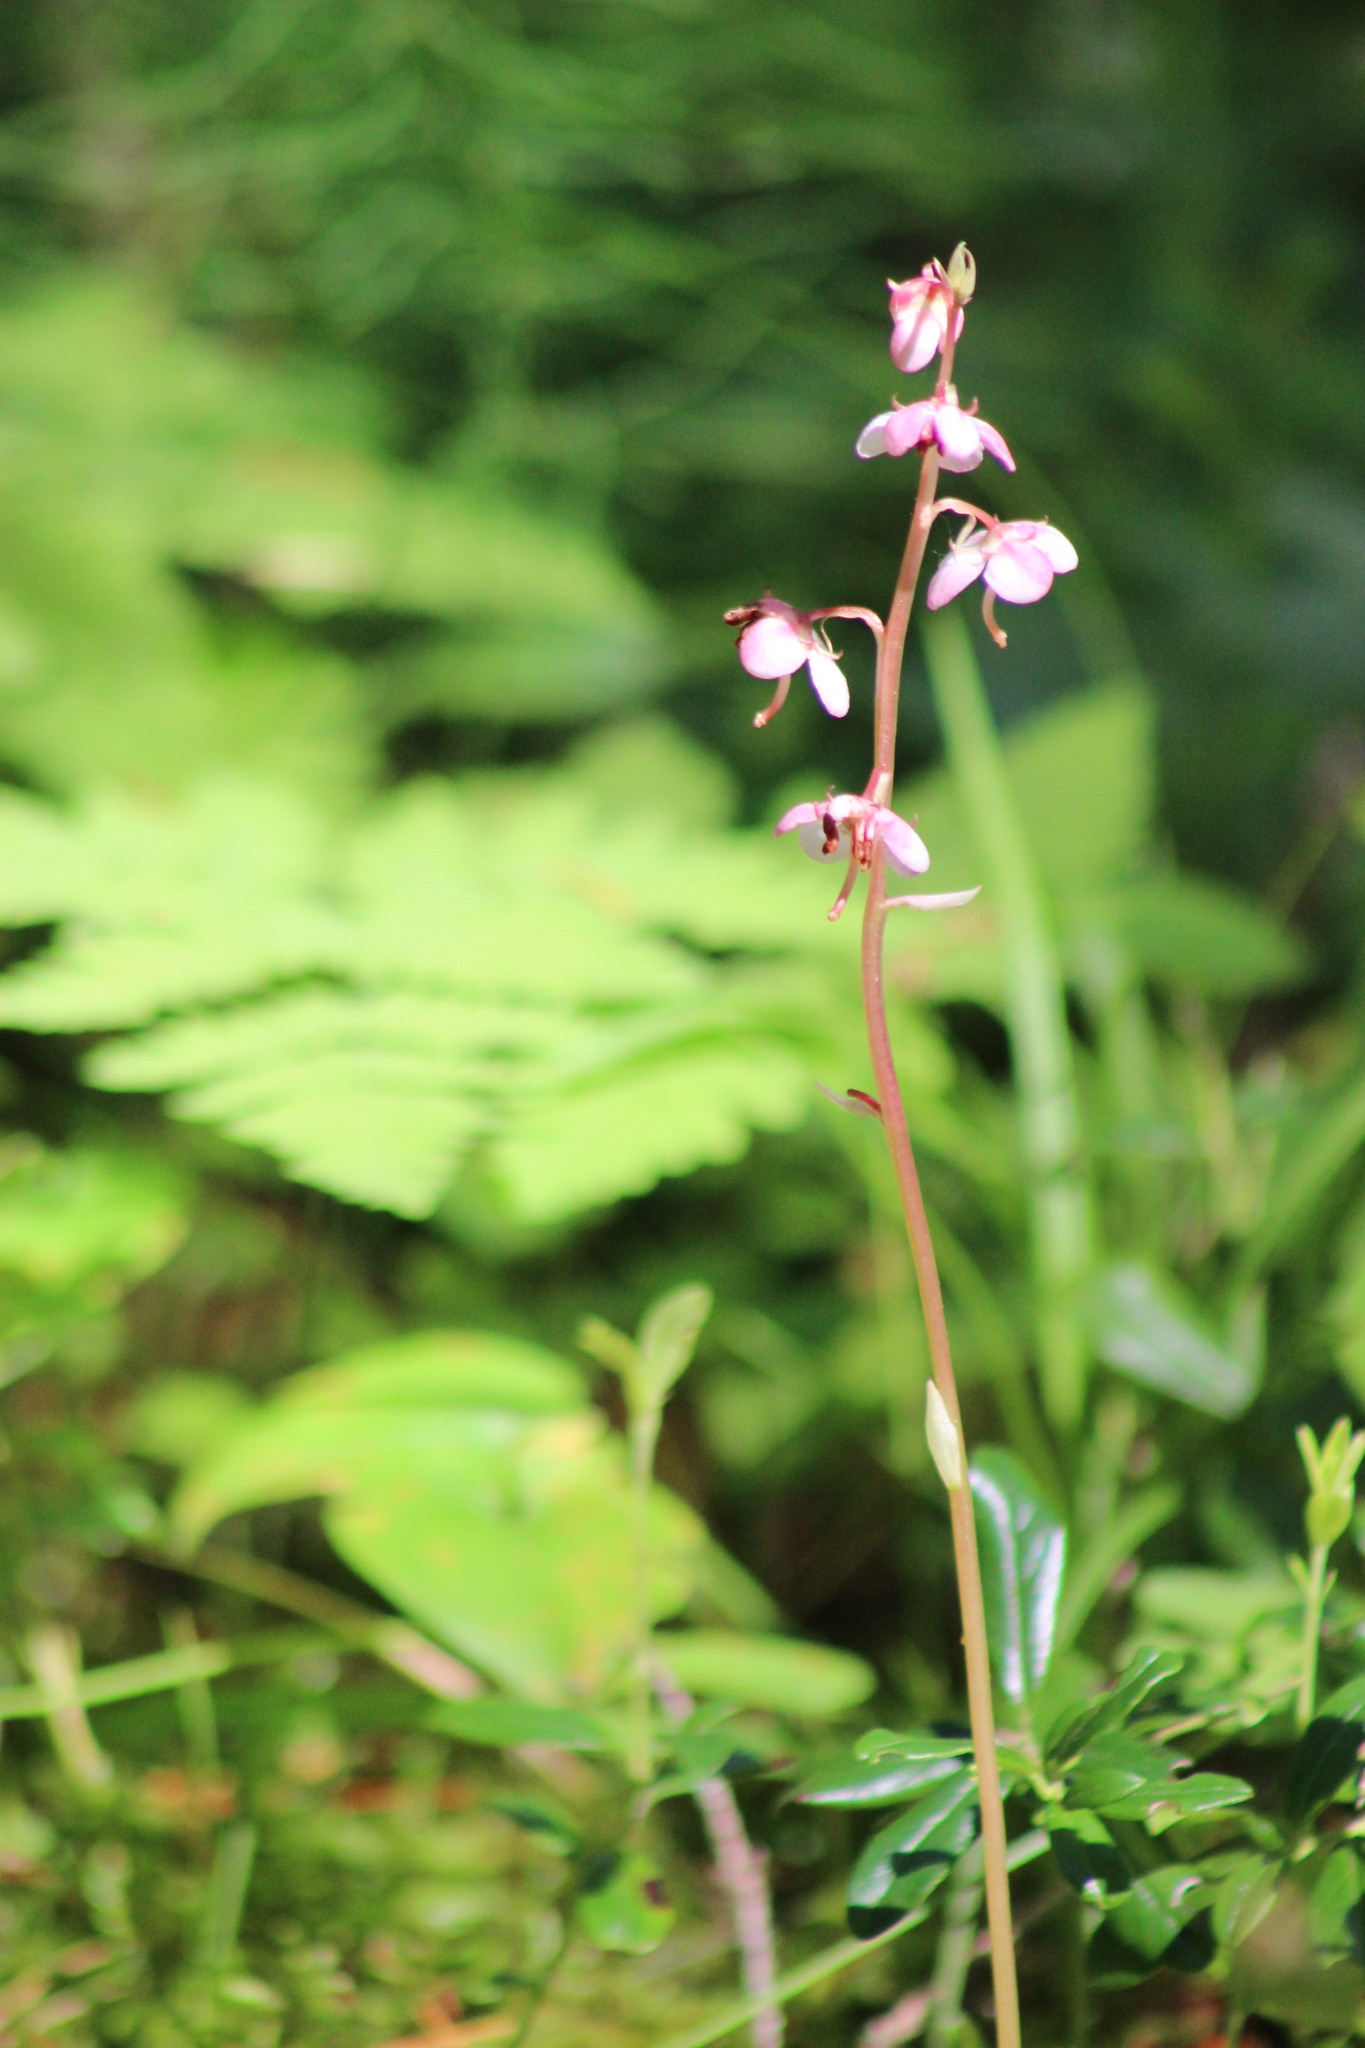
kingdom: Plantae
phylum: Tracheophyta
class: Magnoliopsida
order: Ericales
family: Ericaceae
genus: Pyrola
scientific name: Pyrola asarifolia
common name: Bog wintergreen
